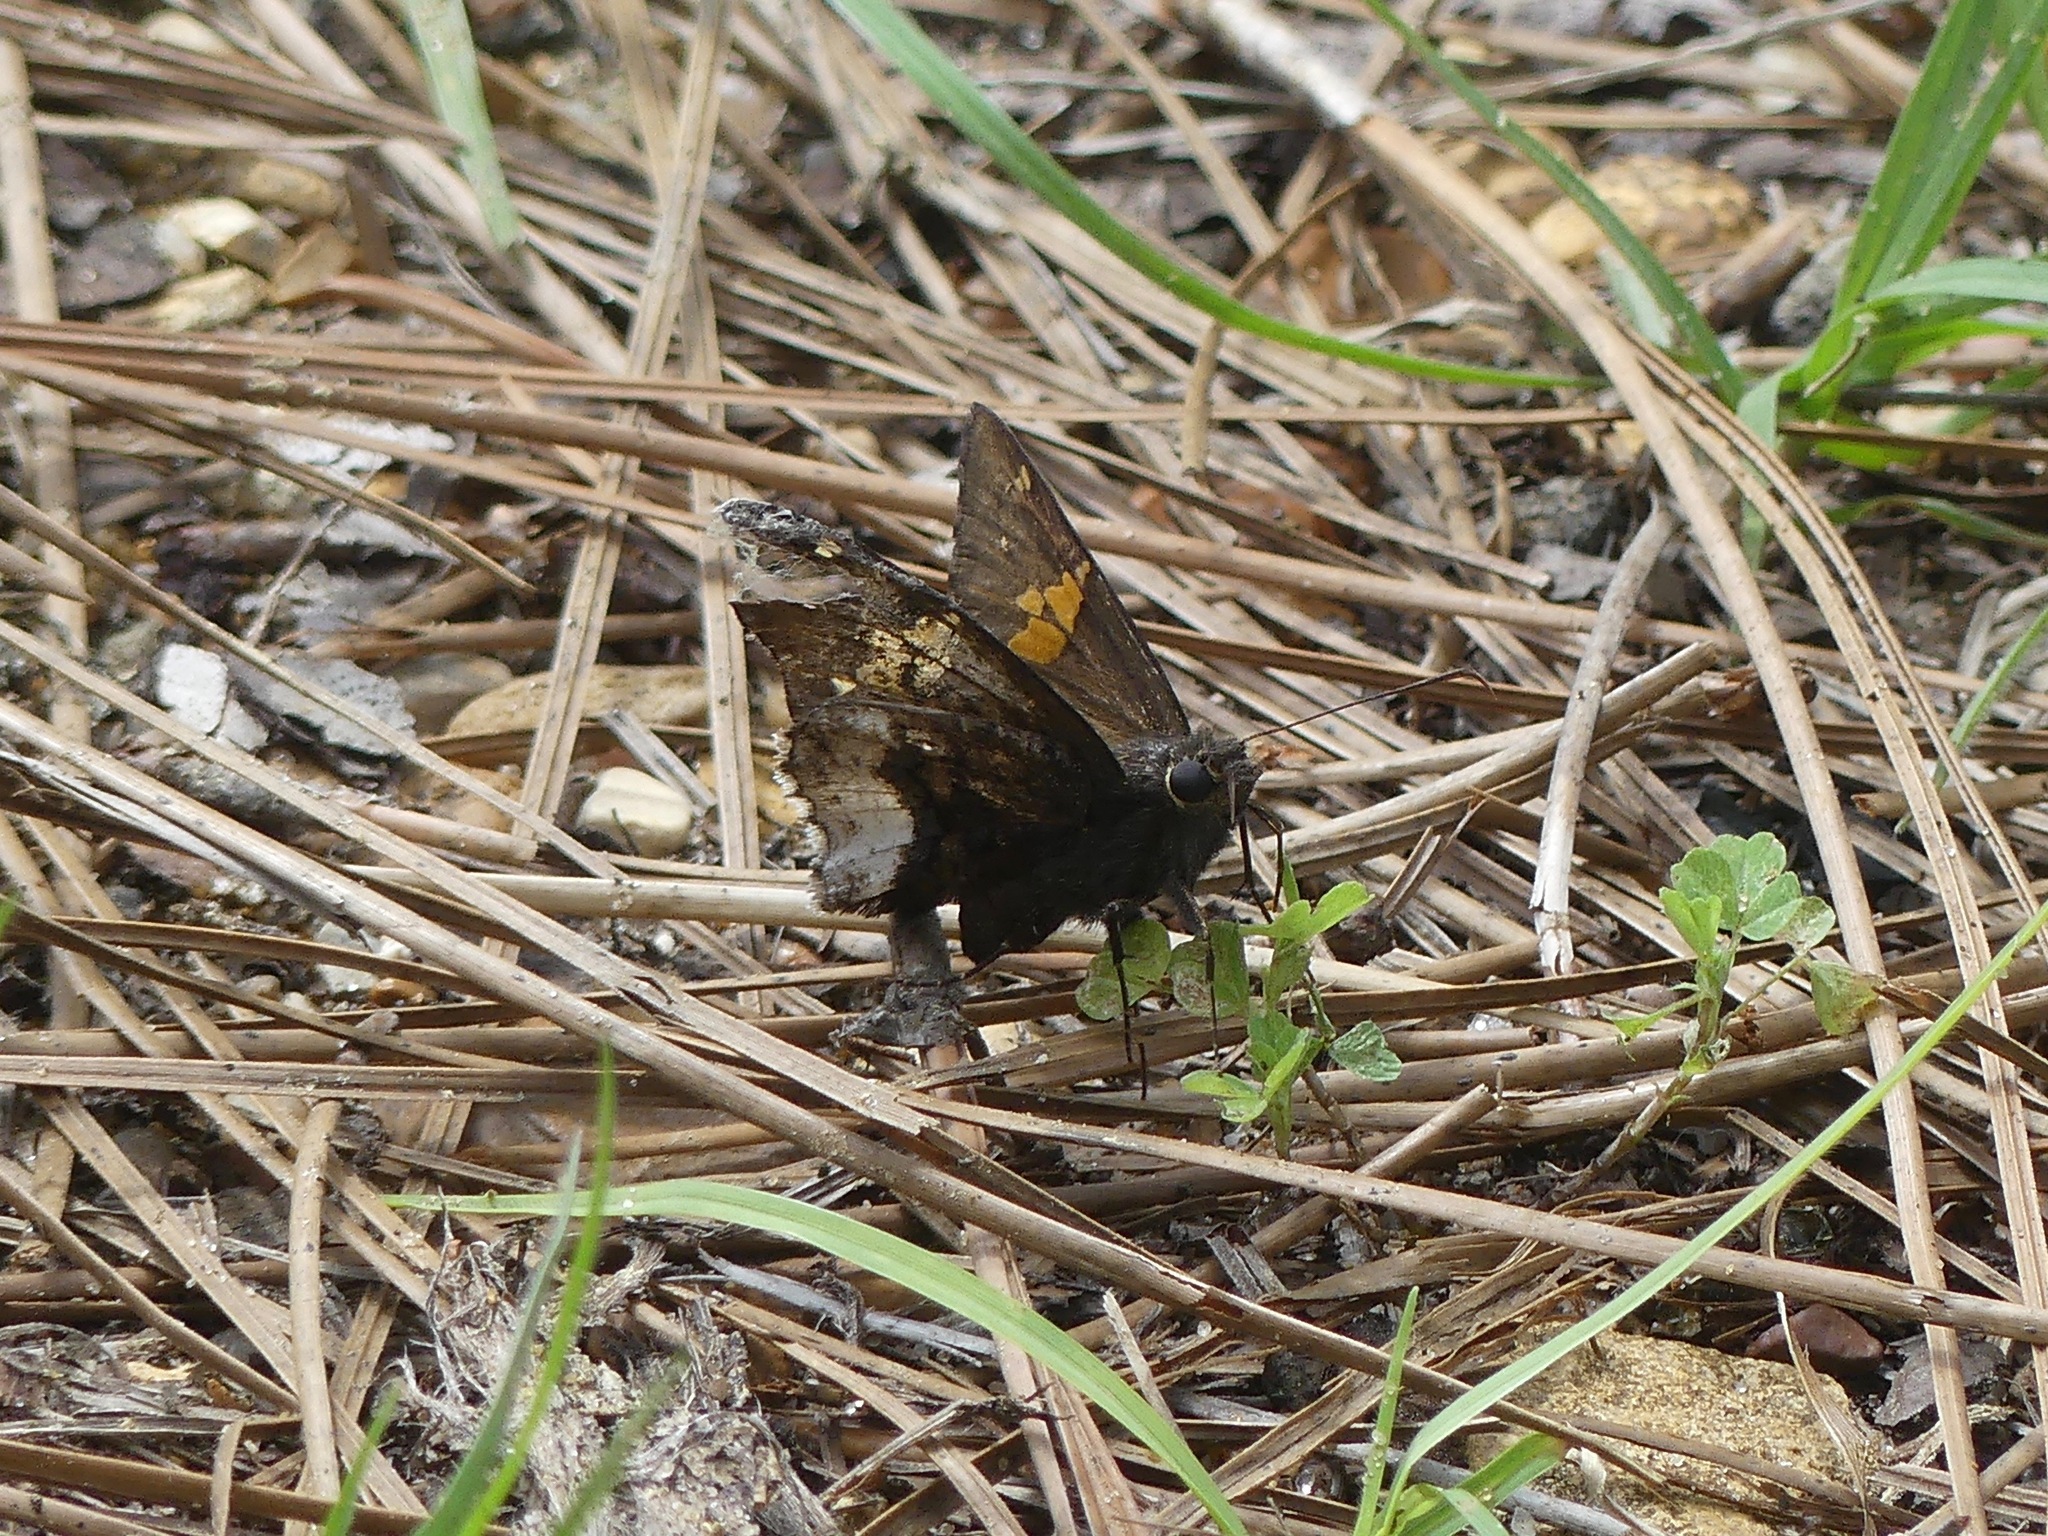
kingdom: Animalia
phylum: Arthropoda
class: Insecta
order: Lepidoptera
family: Hesperiidae
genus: Thorybes
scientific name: Thorybes lyciades
